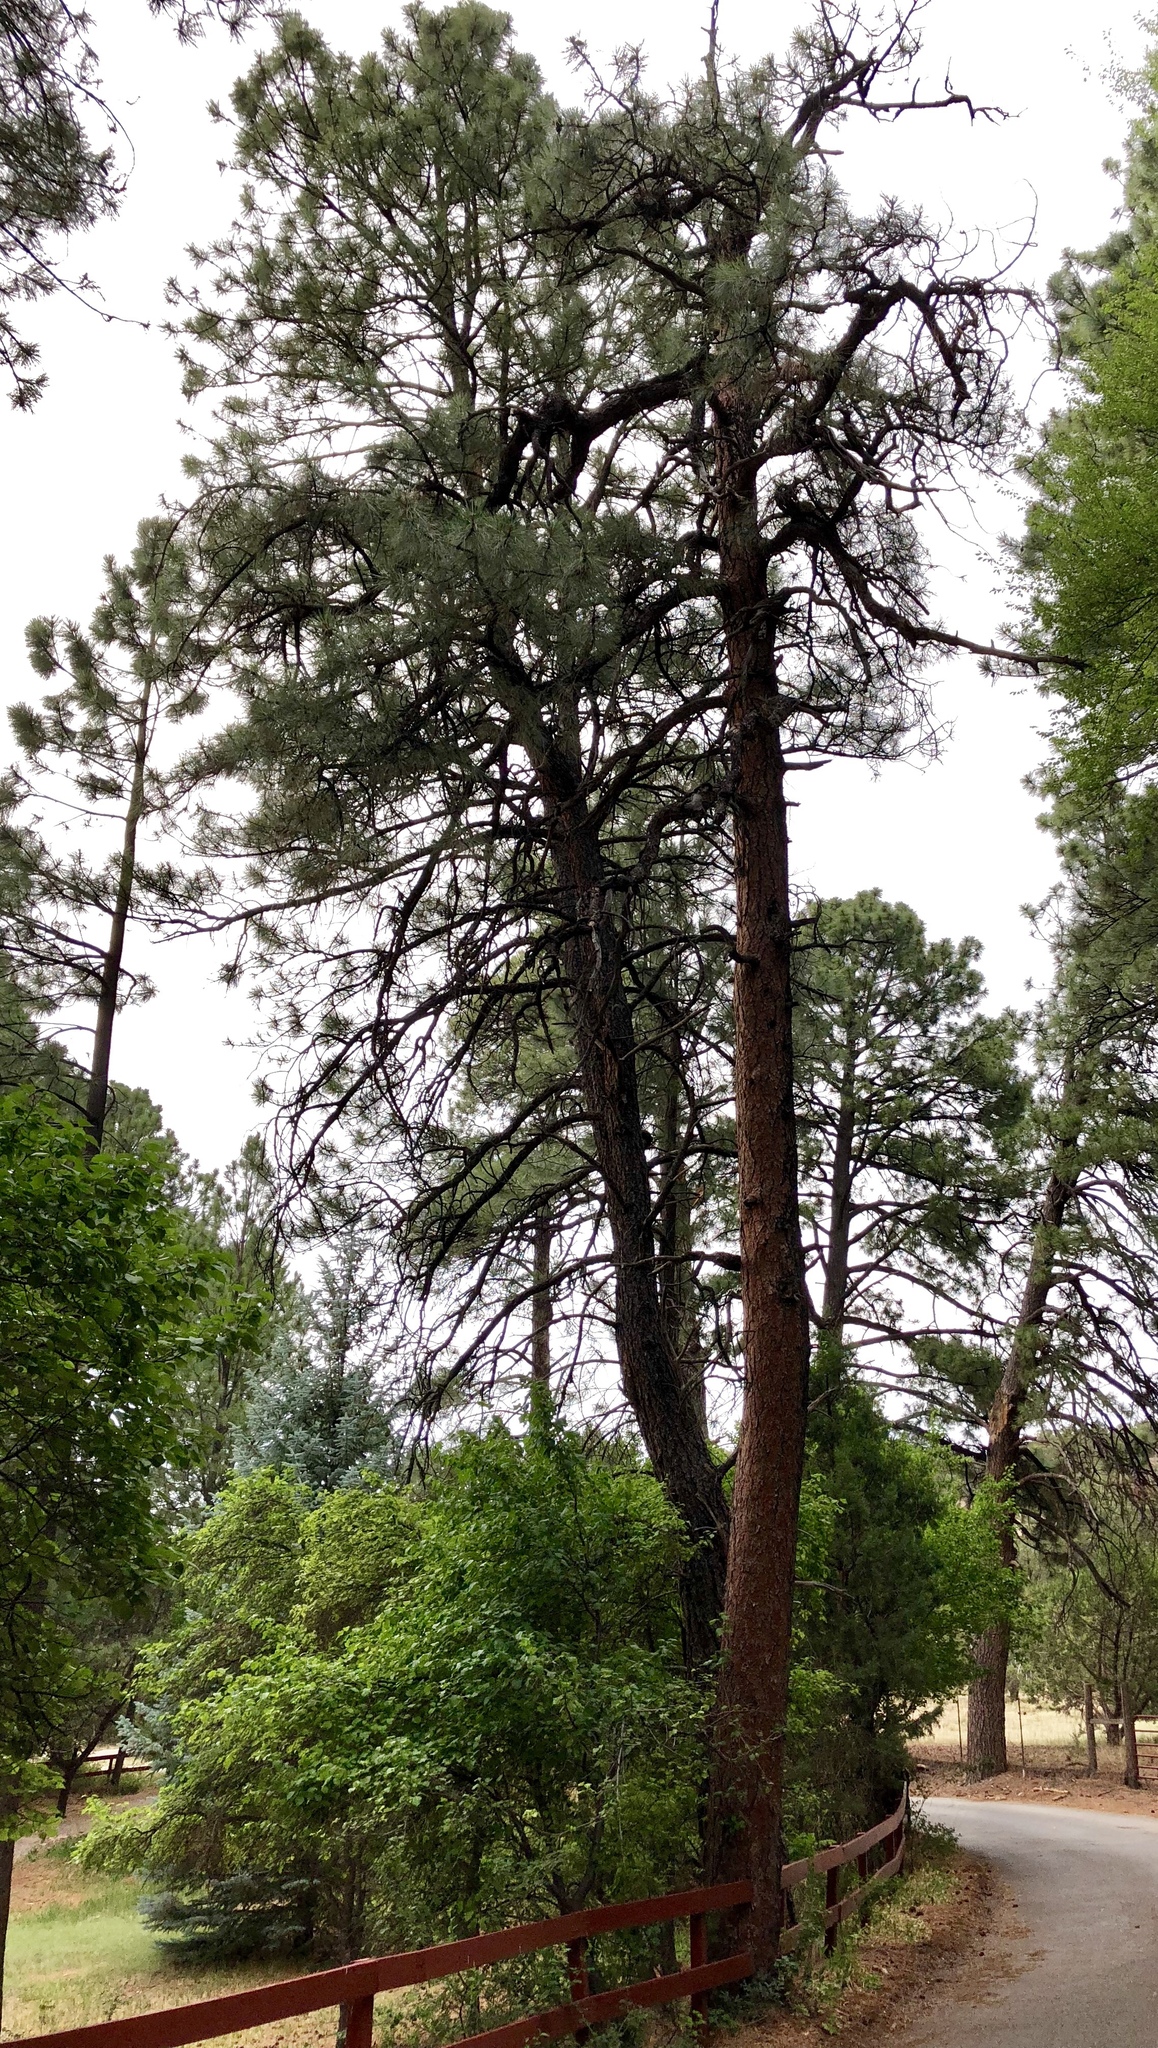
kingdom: Plantae
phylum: Tracheophyta
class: Pinopsida
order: Pinales
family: Pinaceae
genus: Pinus
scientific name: Pinus ponderosa
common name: Western yellow-pine
